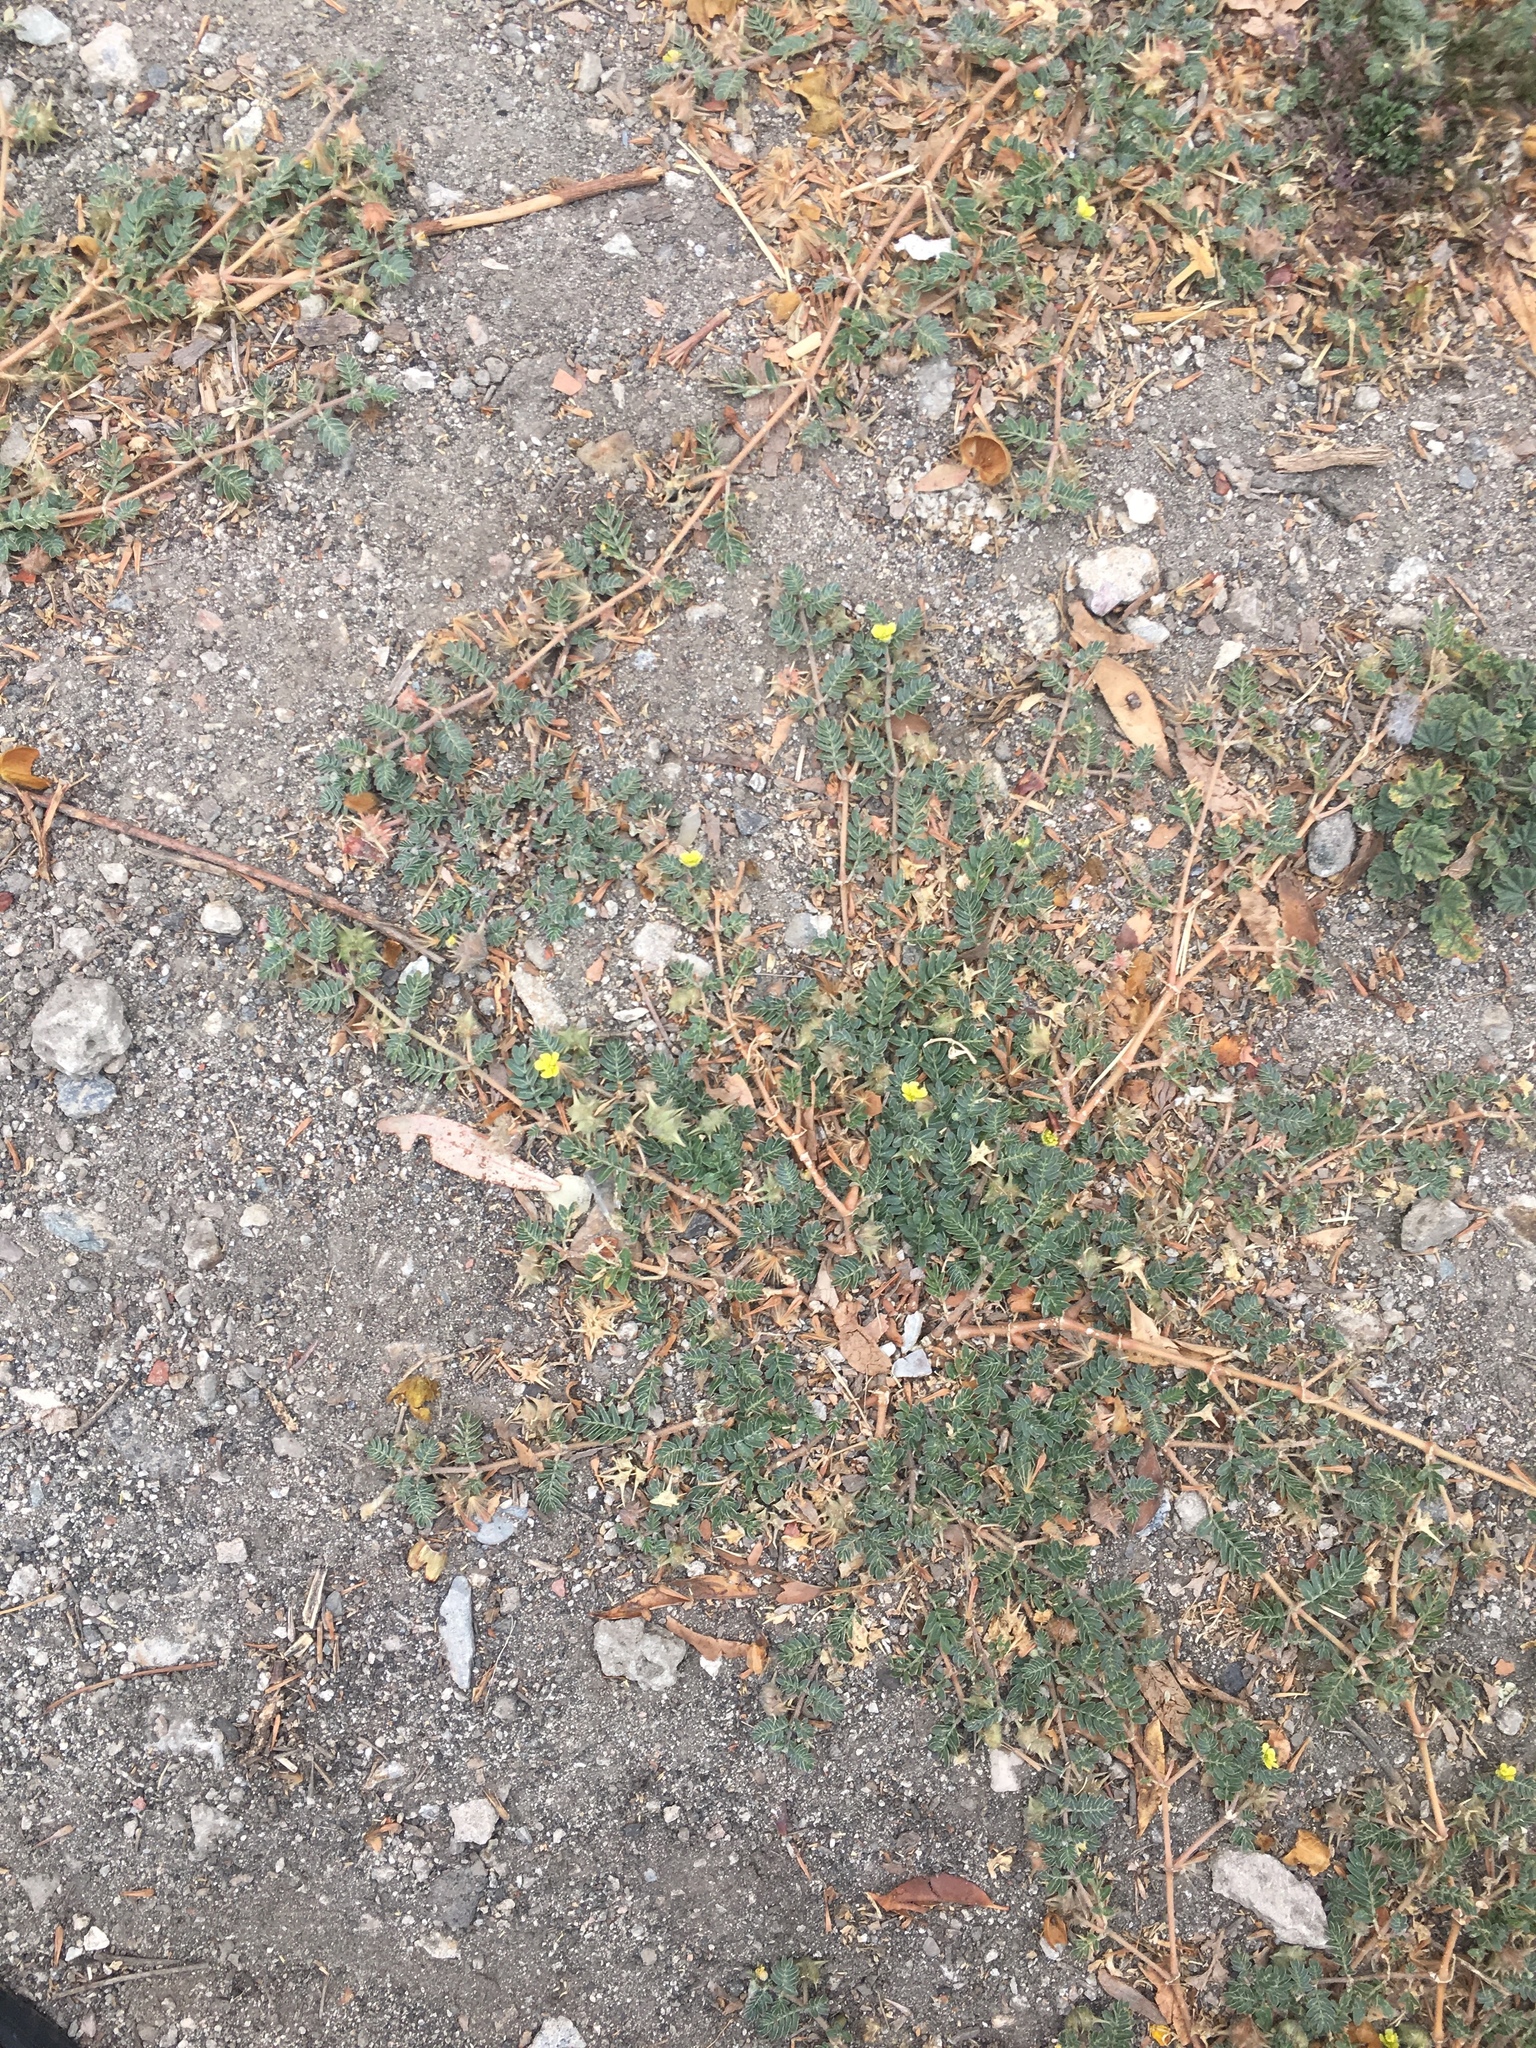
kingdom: Plantae
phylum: Tracheophyta
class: Magnoliopsida
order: Zygophyllales
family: Zygophyllaceae
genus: Tribulus
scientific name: Tribulus terrestris
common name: Puncturevine
